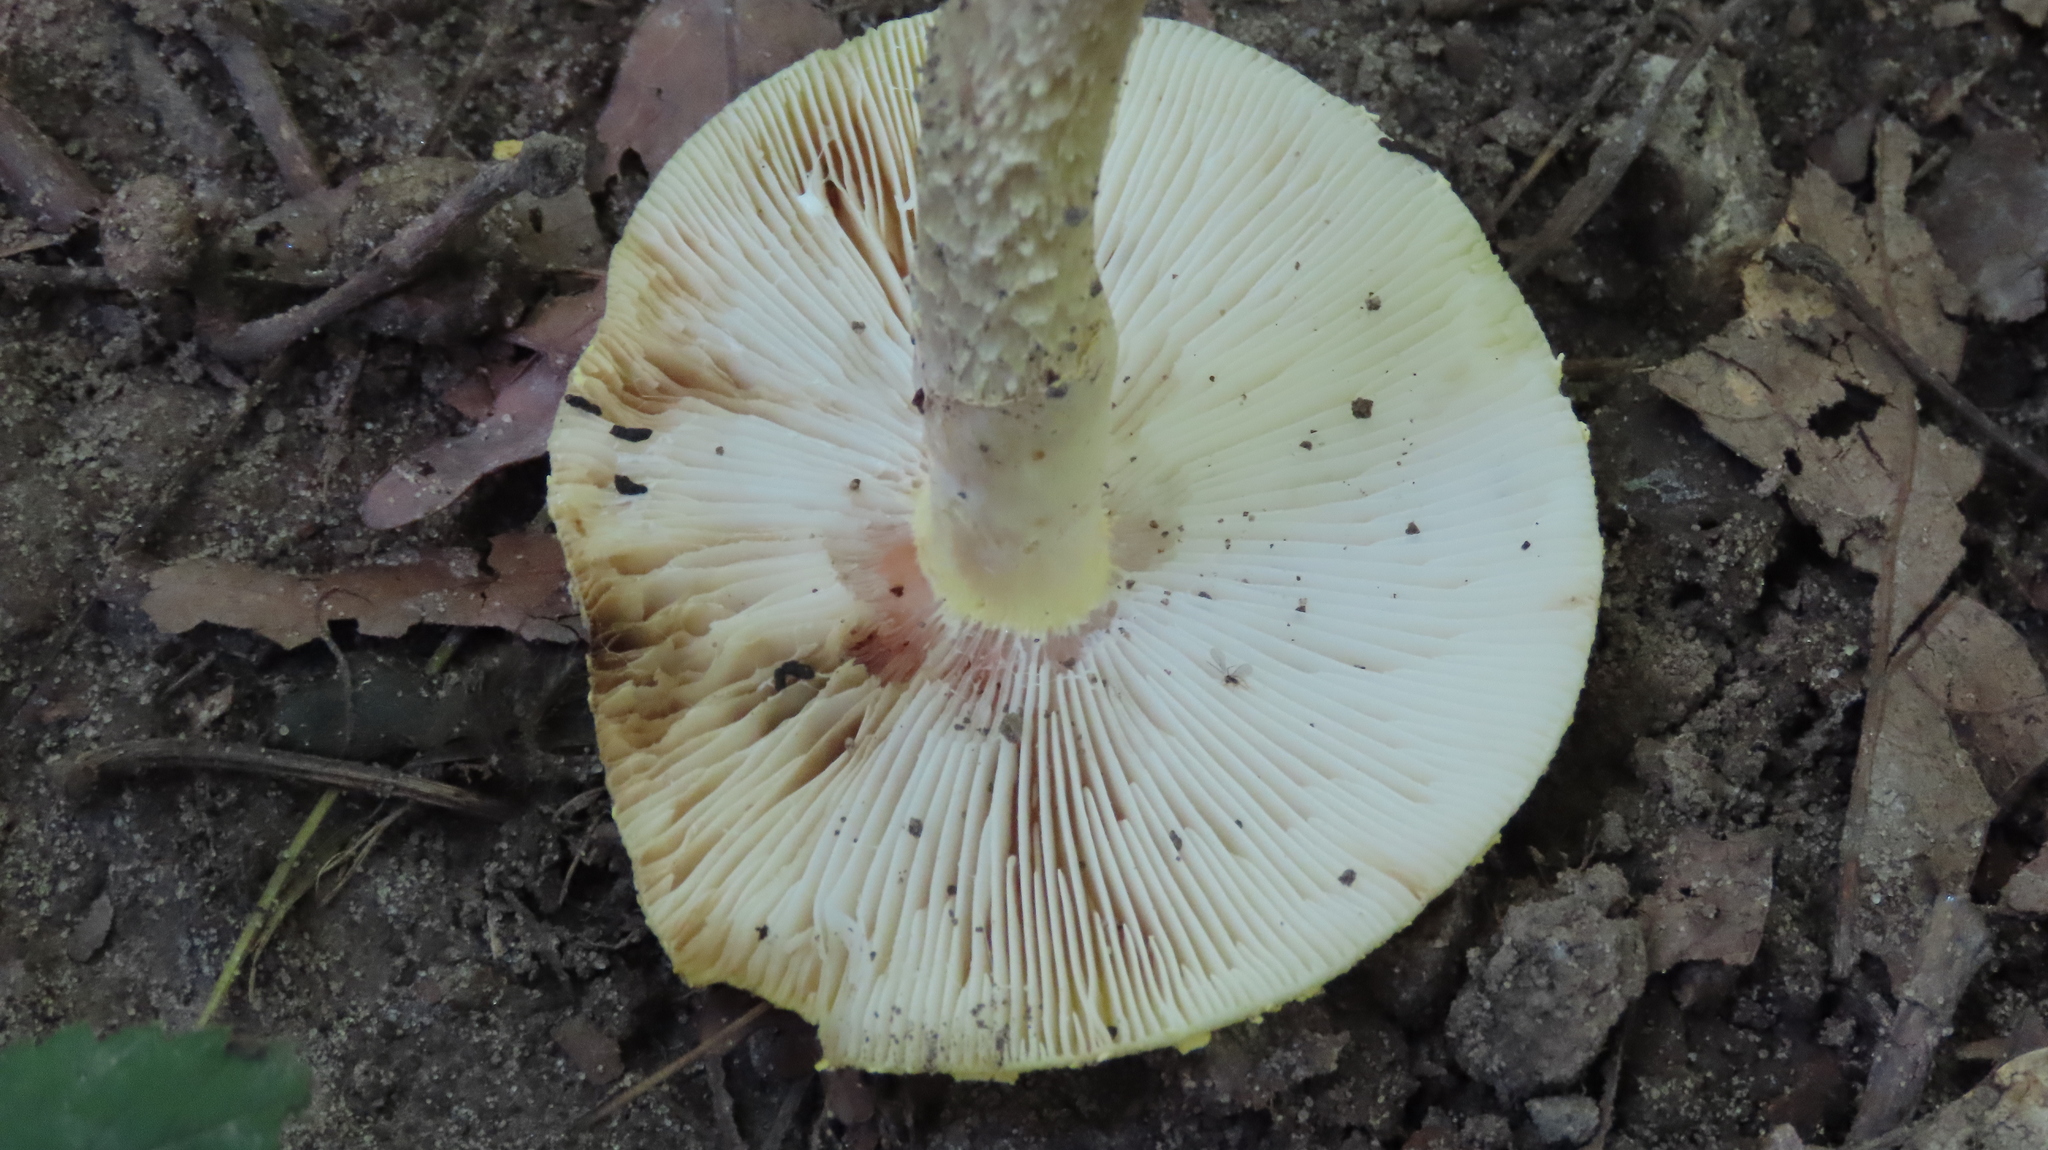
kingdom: Fungi
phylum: Basidiomycota
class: Agaricomycetes
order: Agaricales
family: Amanitaceae
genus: Amanita
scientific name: Amanita flavorubens
